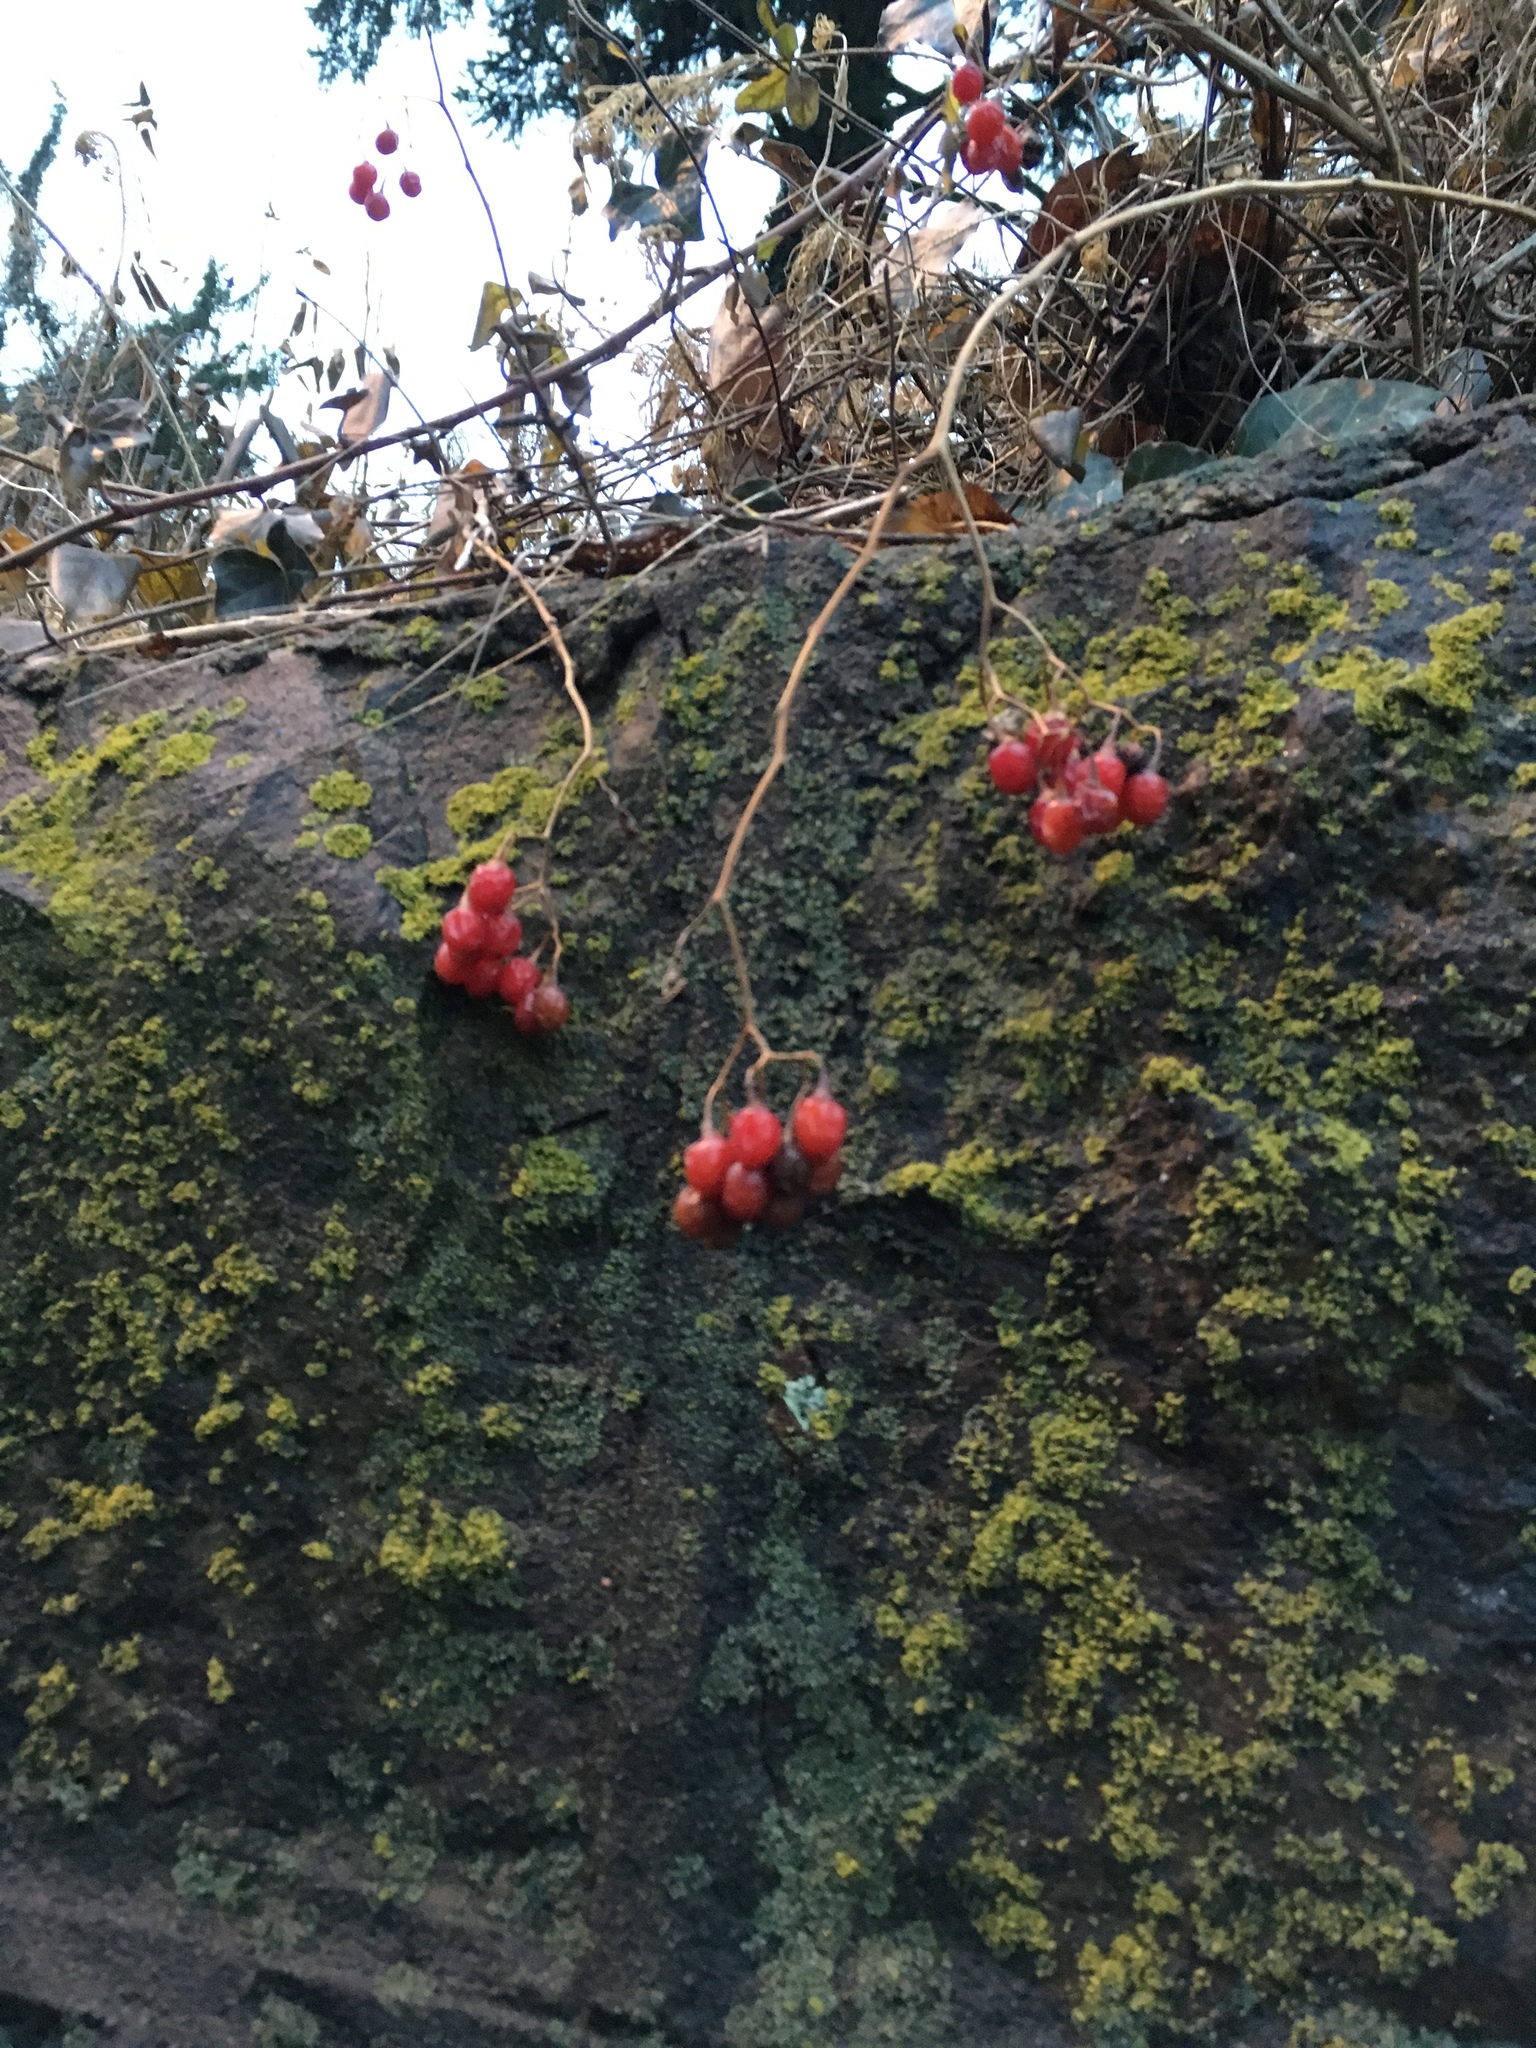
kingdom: Plantae
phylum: Tracheophyta
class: Magnoliopsida
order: Solanales
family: Solanaceae
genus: Solanum
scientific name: Solanum dulcamara
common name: Climbing nightshade
